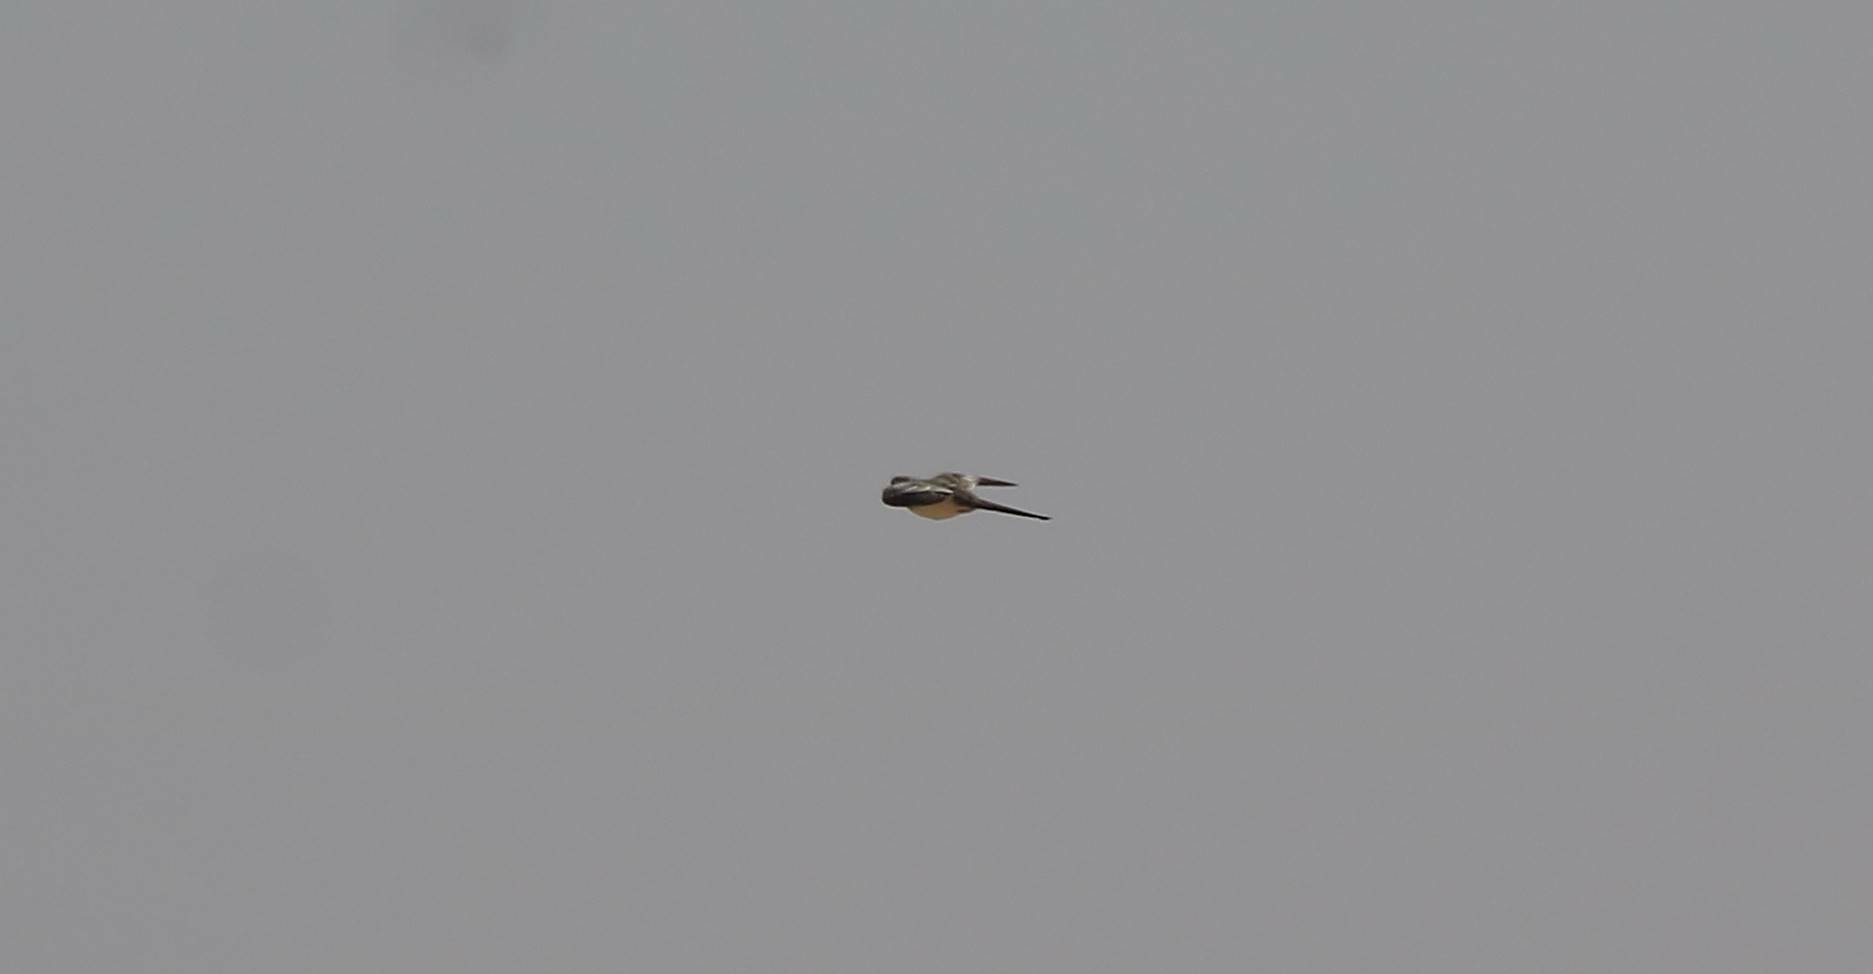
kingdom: Animalia
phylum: Chordata
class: Aves
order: Columbiformes
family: Columbidae
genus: Oena
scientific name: Oena capensis
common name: Namaqua dove
